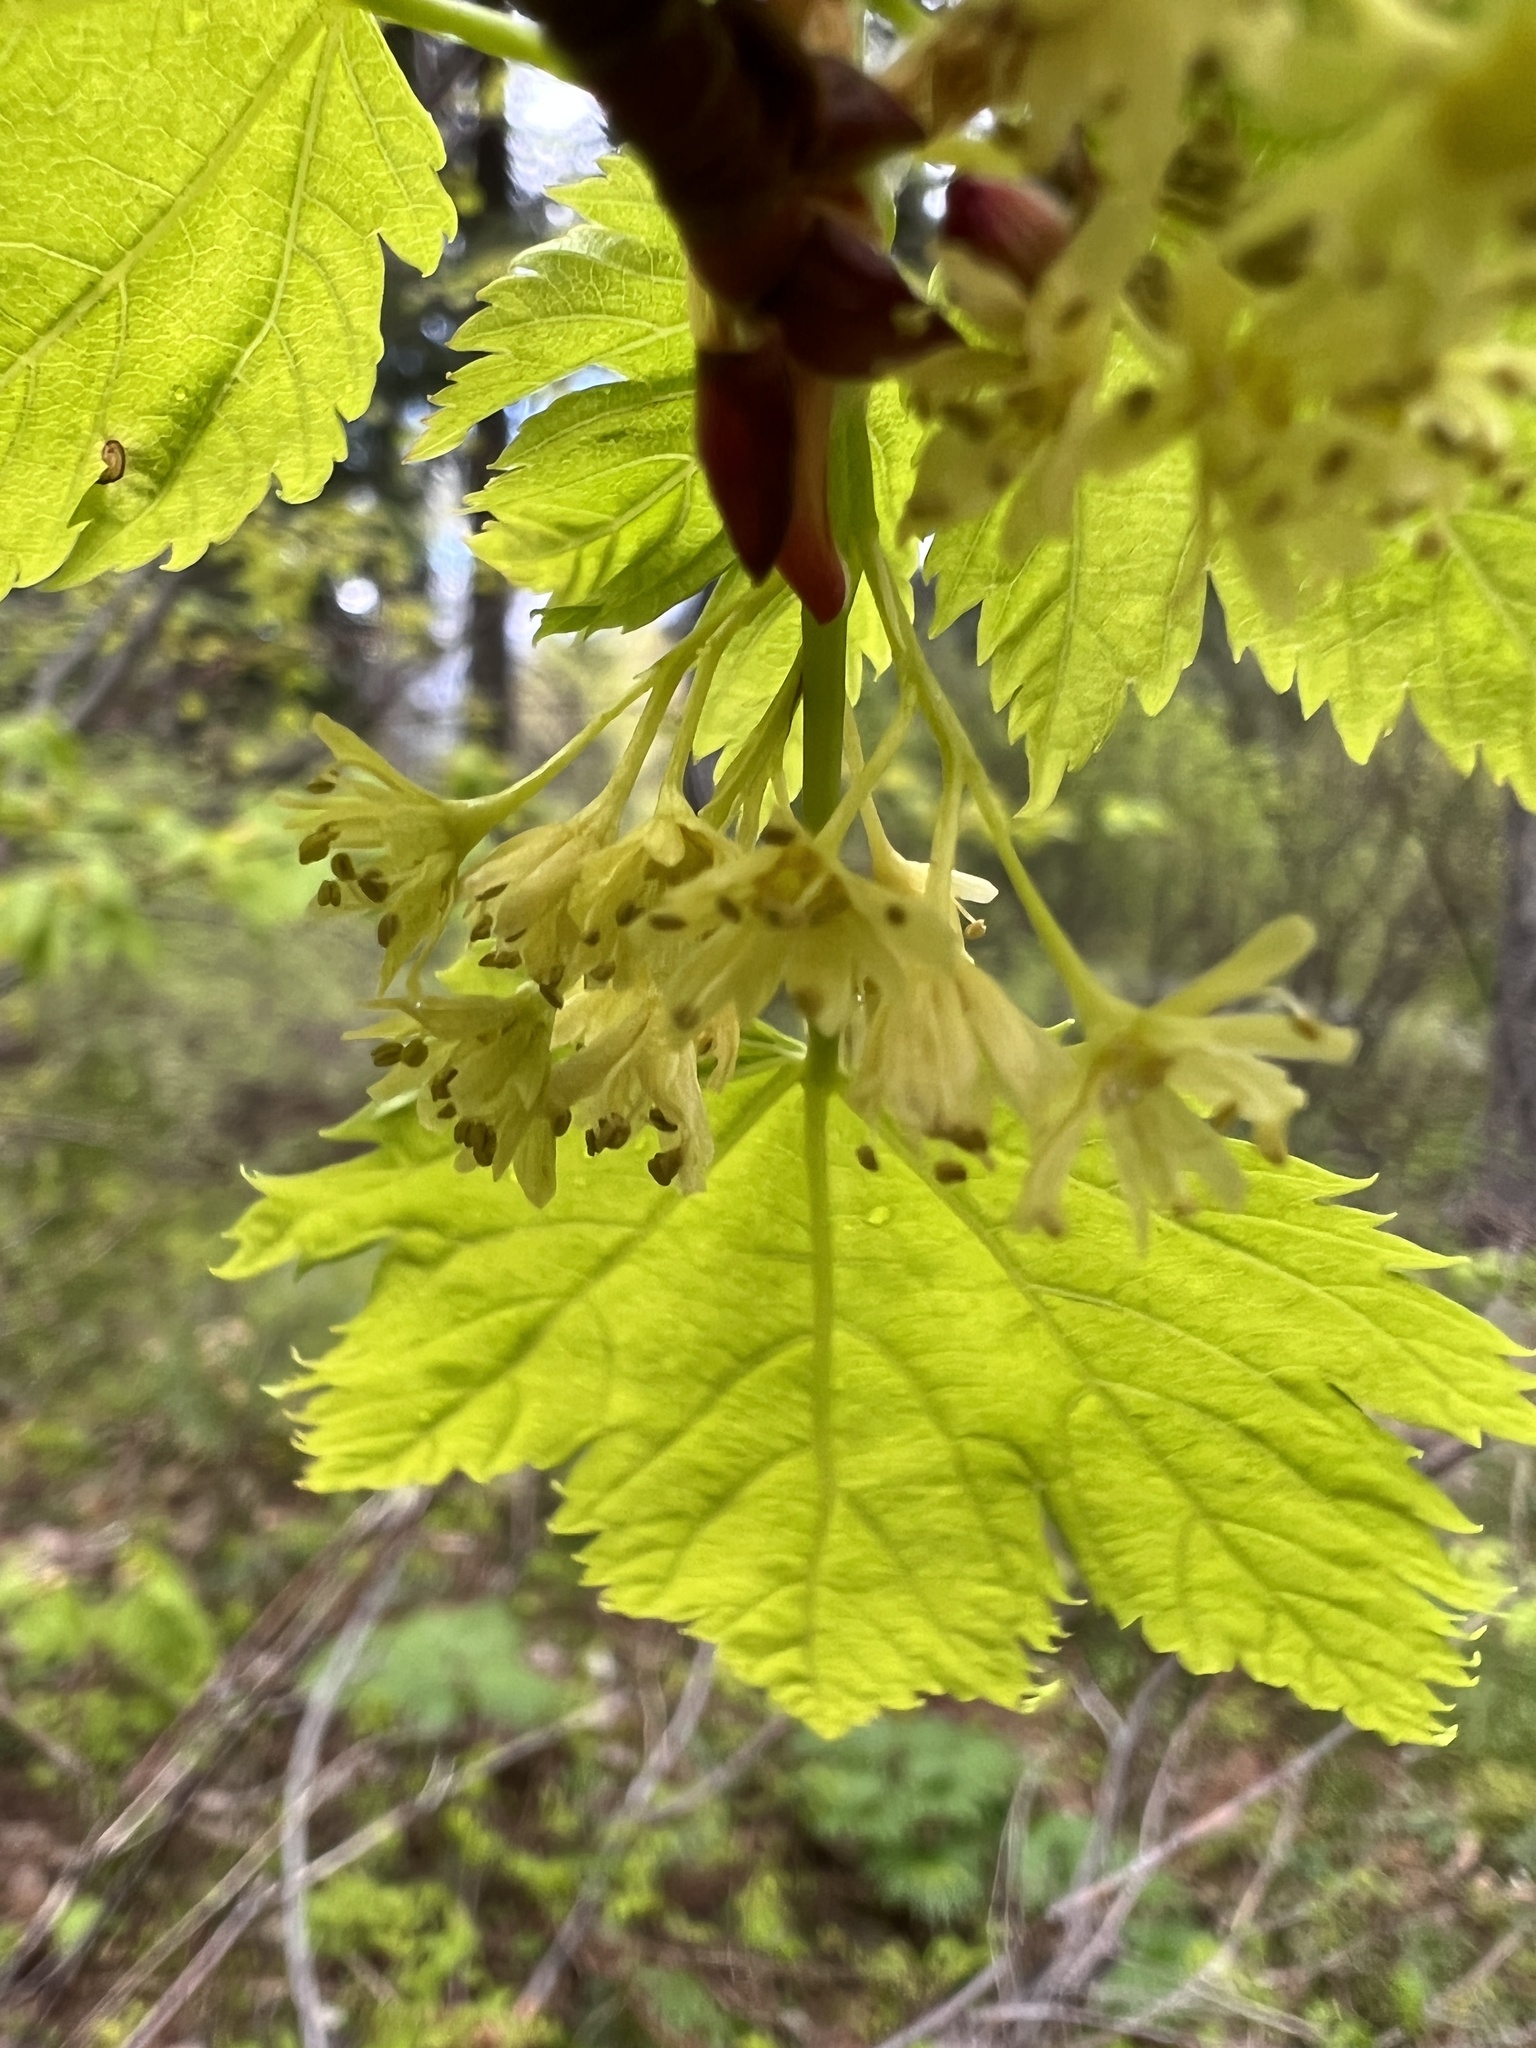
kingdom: Plantae
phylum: Tracheophyta
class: Magnoliopsida
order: Sapindales
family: Sapindaceae
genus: Acer
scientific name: Acer glabrum
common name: Rocky mountain maple
